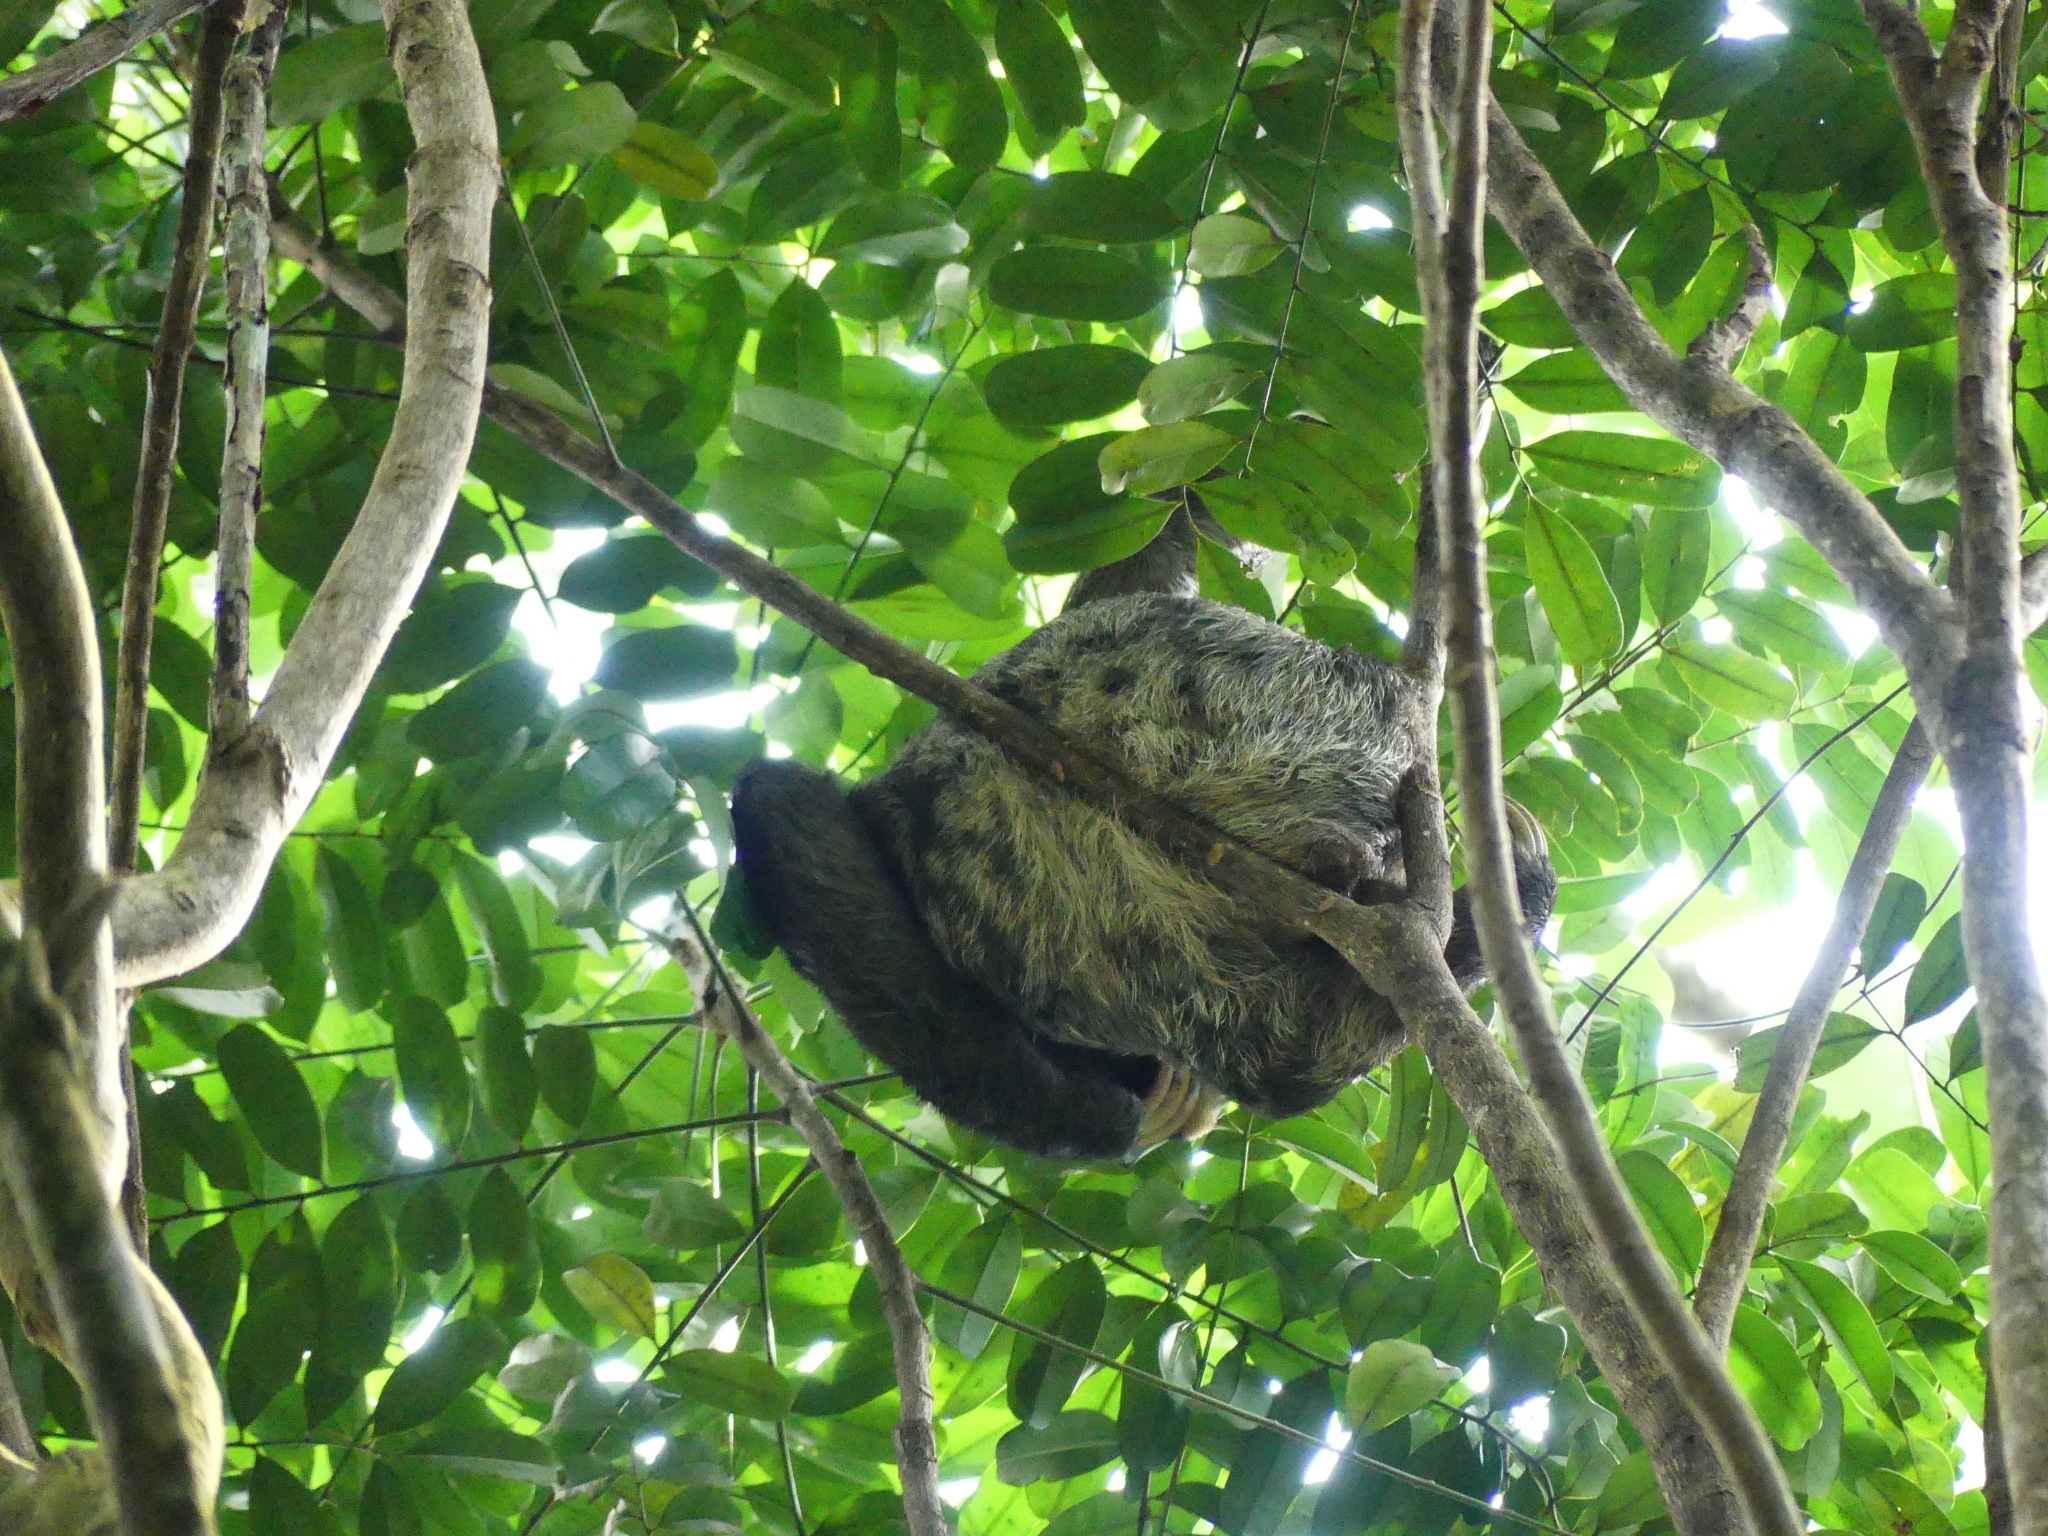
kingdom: Animalia
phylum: Chordata
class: Mammalia
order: Pilosa
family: Bradypodidae
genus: Bradypus
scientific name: Bradypus tridactylus
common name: Pale-throated three-toed sloth
